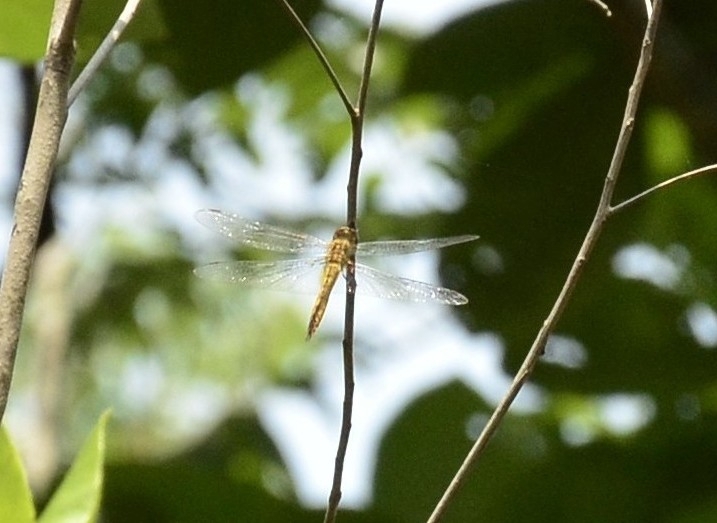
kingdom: Animalia
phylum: Arthropoda
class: Insecta
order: Odonata
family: Libellulidae
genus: Pantala
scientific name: Pantala flavescens
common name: Wandering glider
